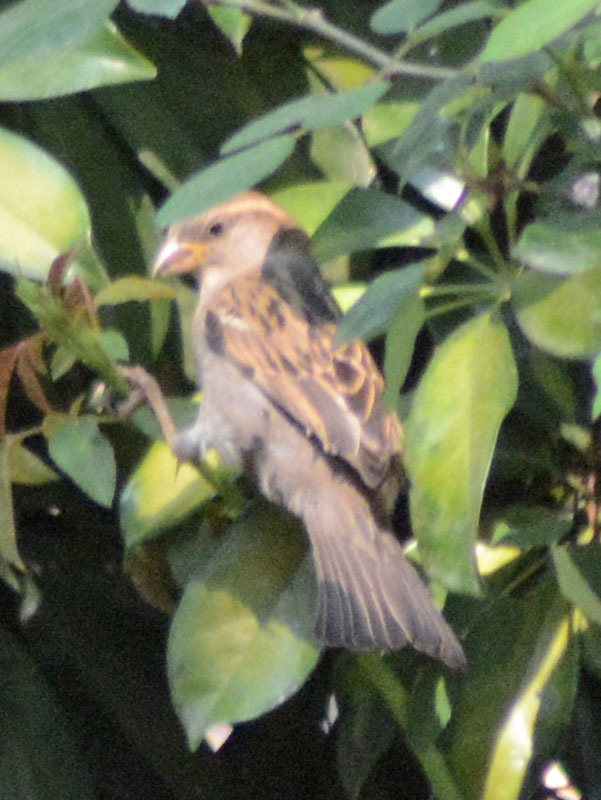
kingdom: Animalia
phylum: Chordata
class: Aves
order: Passeriformes
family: Passeridae
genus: Passer
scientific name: Passer domesticus
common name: House sparrow
